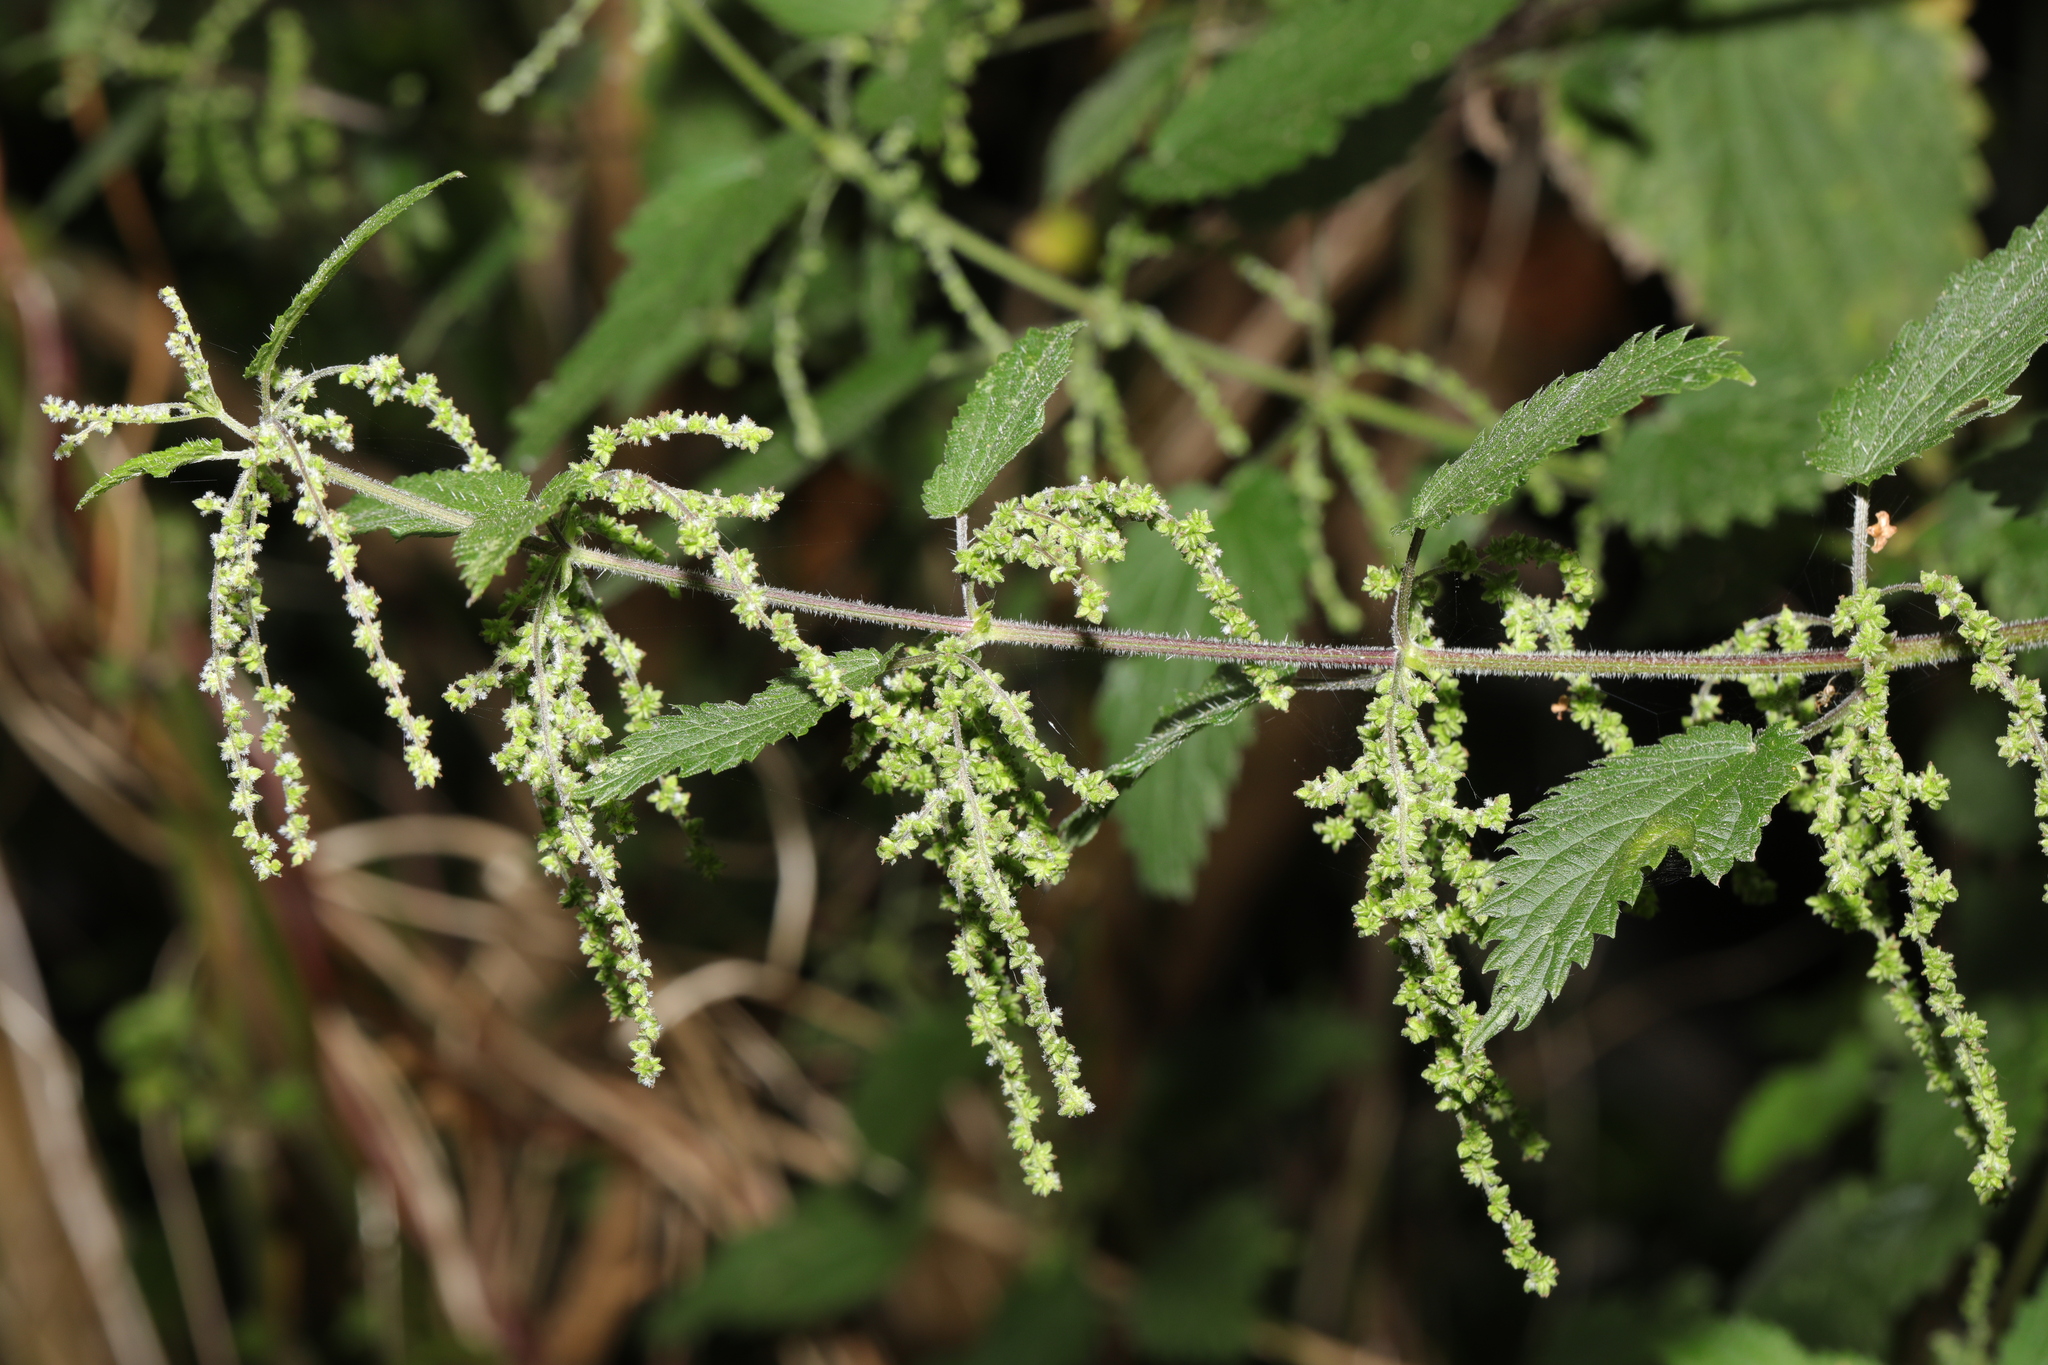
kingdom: Plantae
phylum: Tracheophyta
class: Magnoliopsida
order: Rosales
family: Urticaceae
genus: Urtica
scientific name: Urtica dioica
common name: Common nettle
